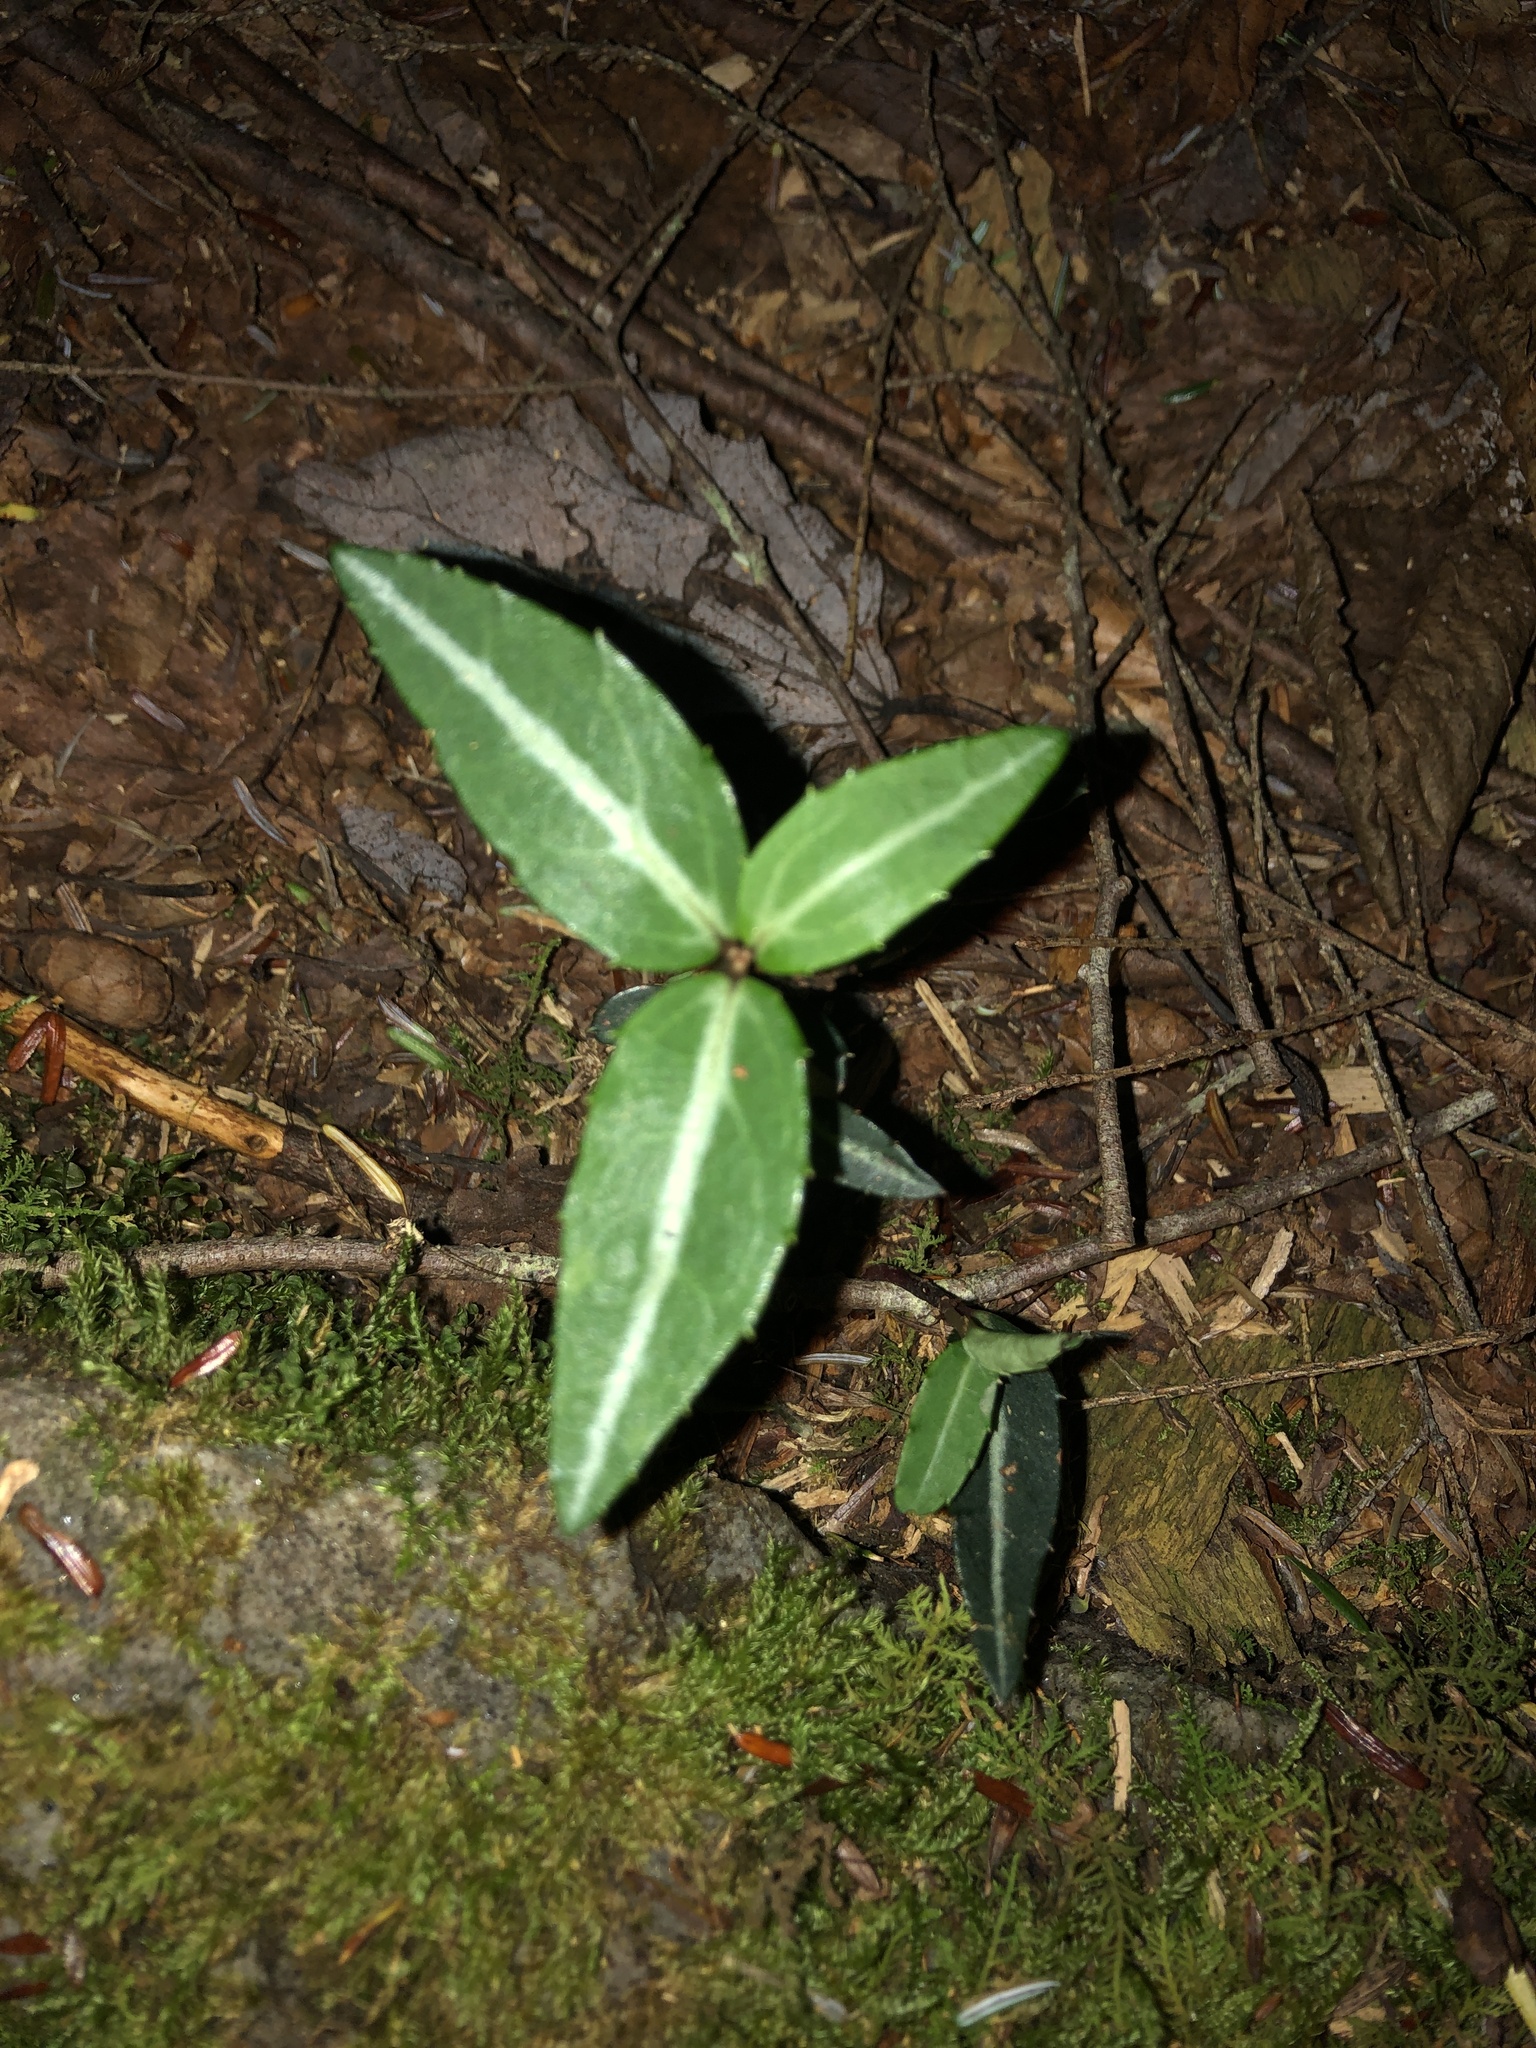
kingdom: Plantae
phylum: Tracheophyta
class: Magnoliopsida
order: Ericales
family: Ericaceae
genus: Chimaphila
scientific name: Chimaphila maculata
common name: Spotted pipsissewa
